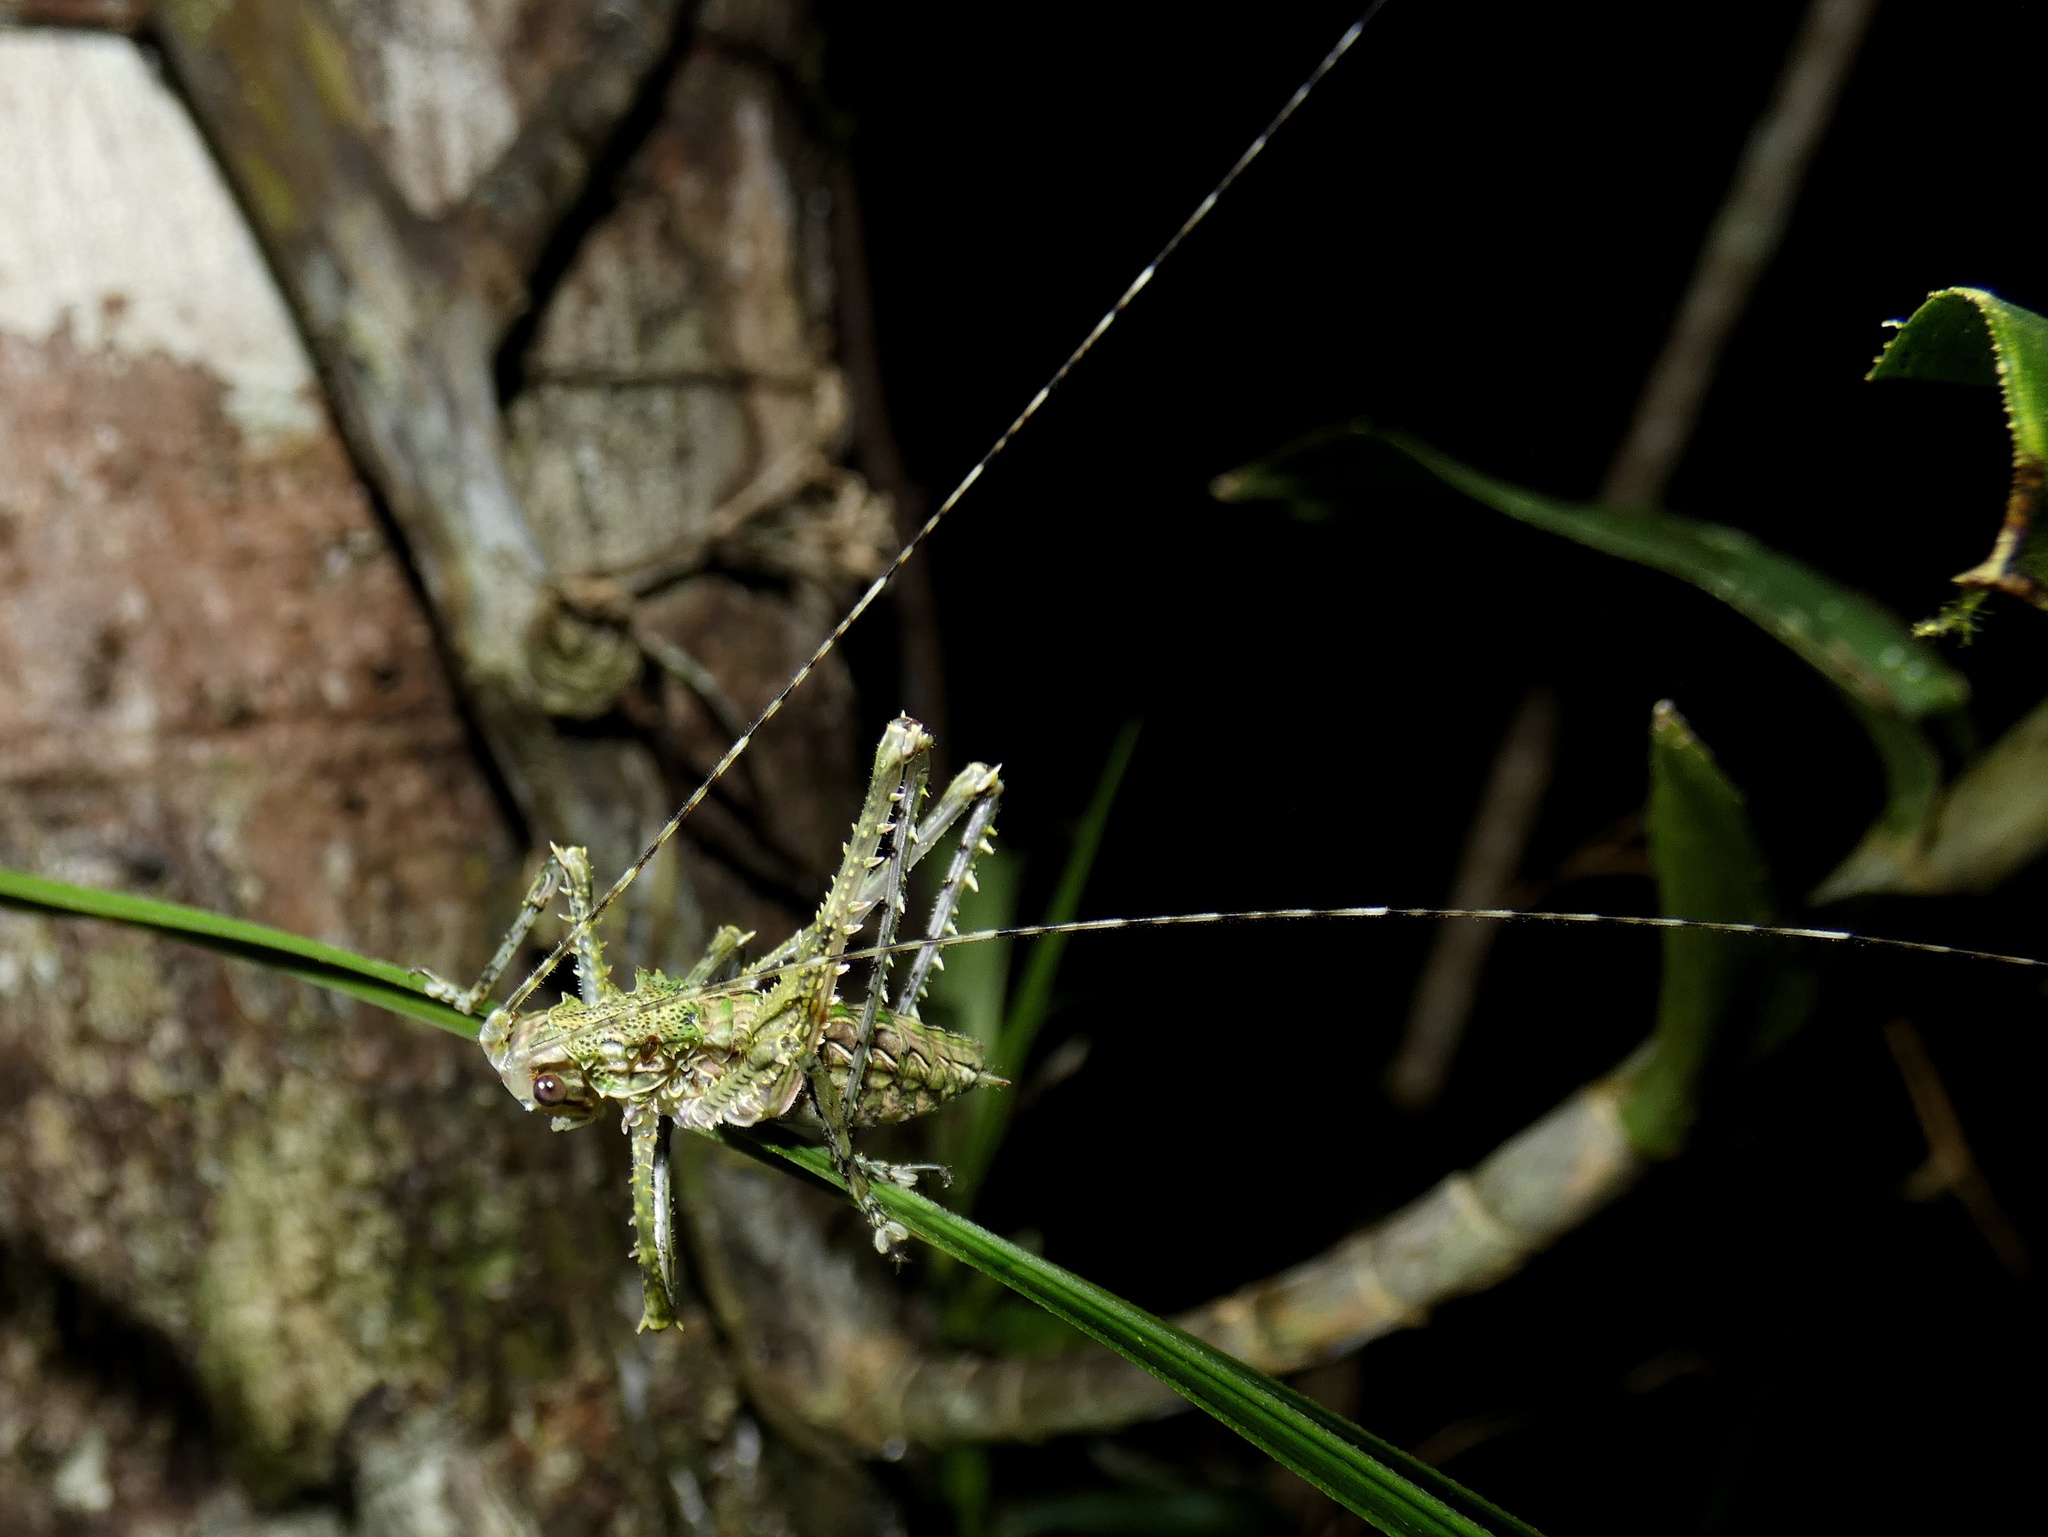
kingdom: Animalia
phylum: Arthropoda
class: Insecta
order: Orthoptera
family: Tettigoniidae
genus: Phricta
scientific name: Phricta spinosa
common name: Giant spiny forest katydid
